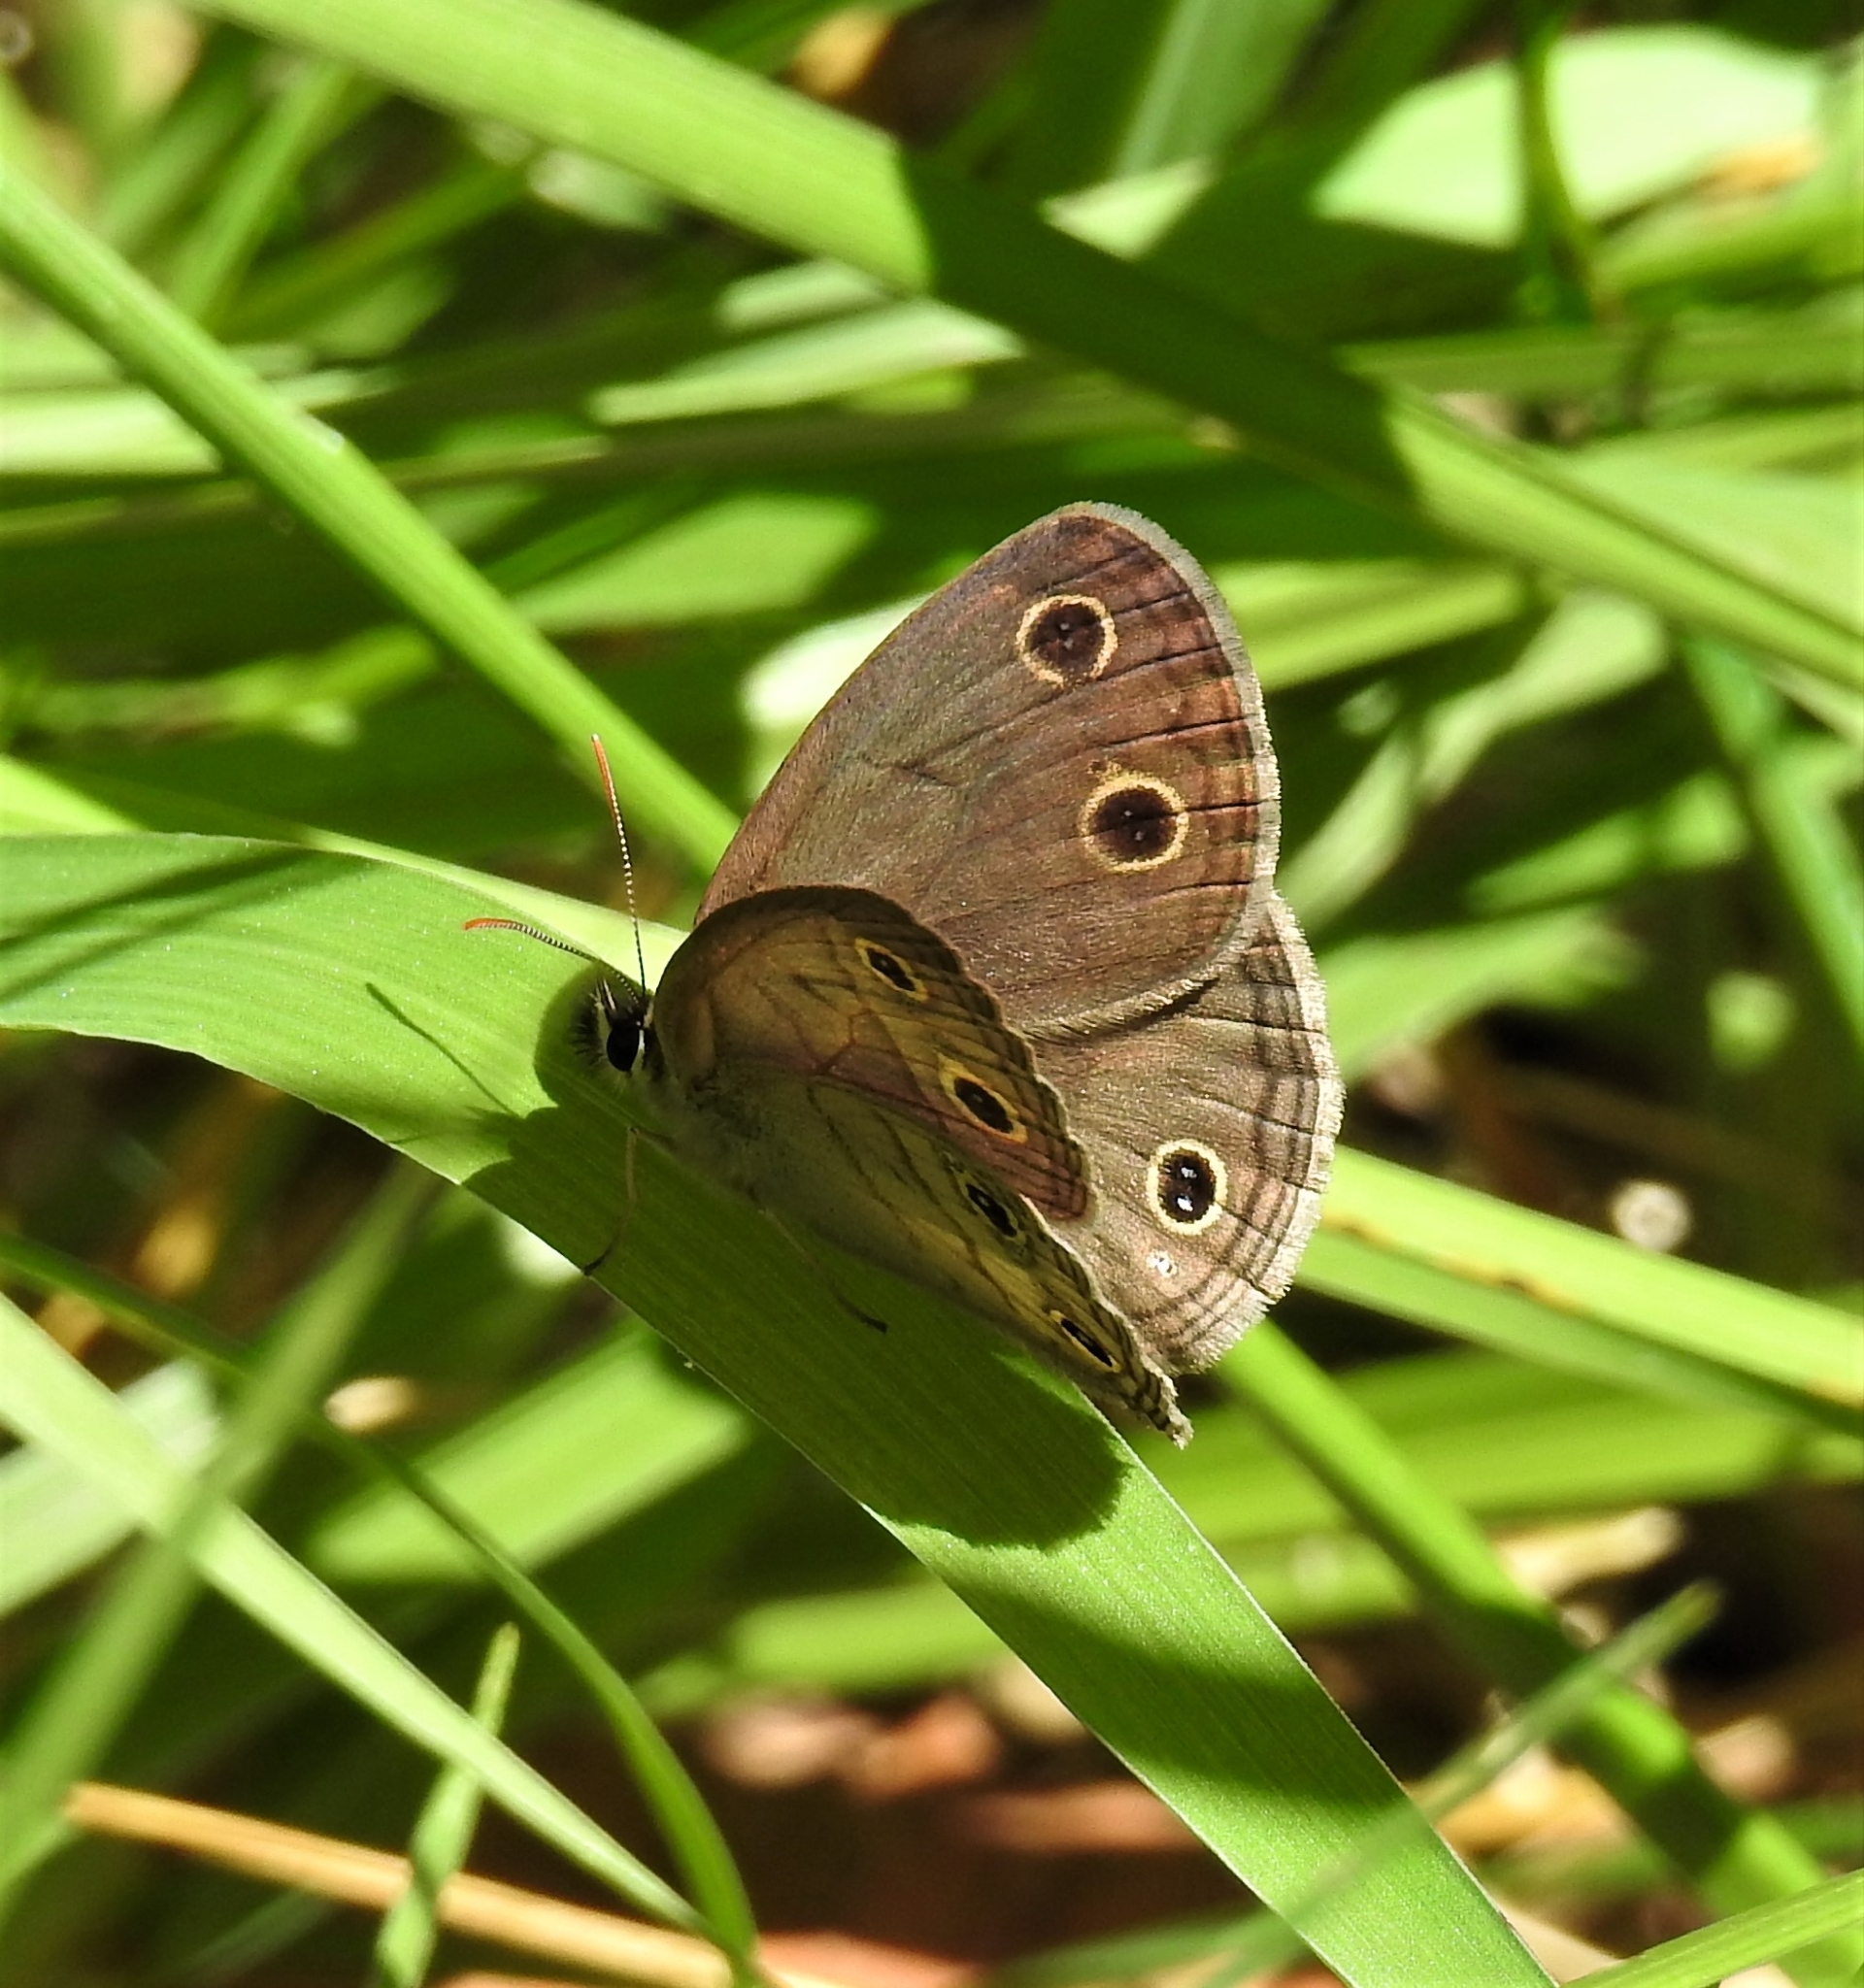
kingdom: Animalia
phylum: Arthropoda
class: Insecta
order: Lepidoptera
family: Nymphalidae
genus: Euptychia
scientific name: Euptychia cymela
